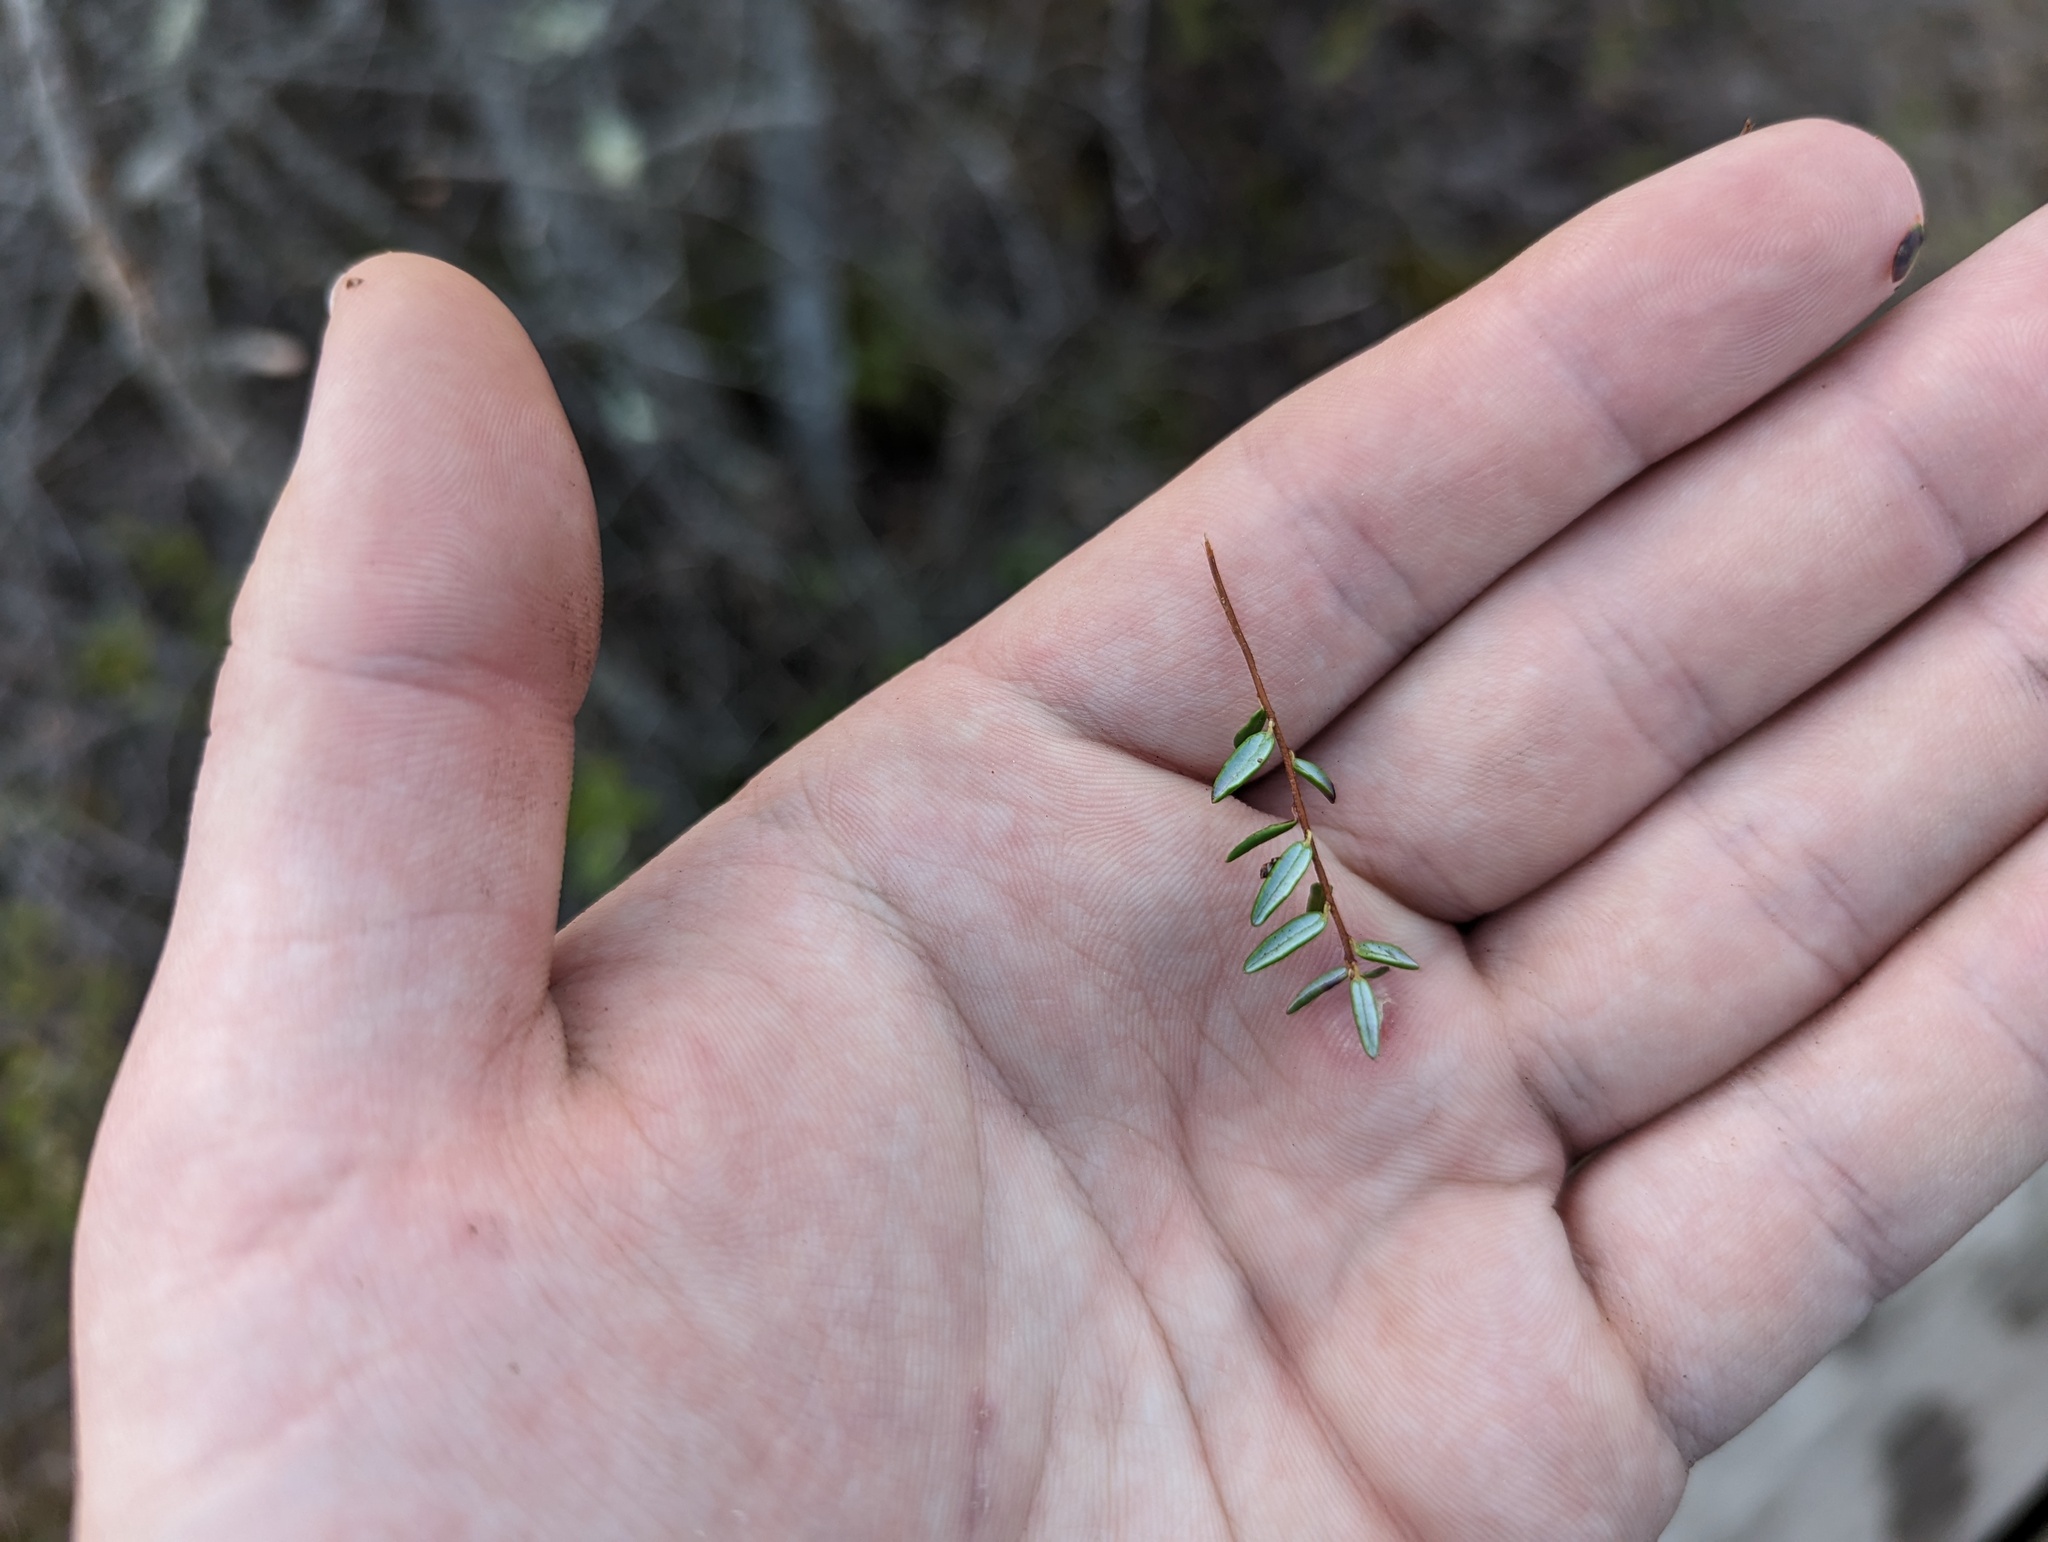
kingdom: Plantae
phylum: Tracheophyta
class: Magnoliopsida
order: Ericales
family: Ericaceae
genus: Vaccinium
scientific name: Vaccinium oxycoccos
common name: Cranberry
